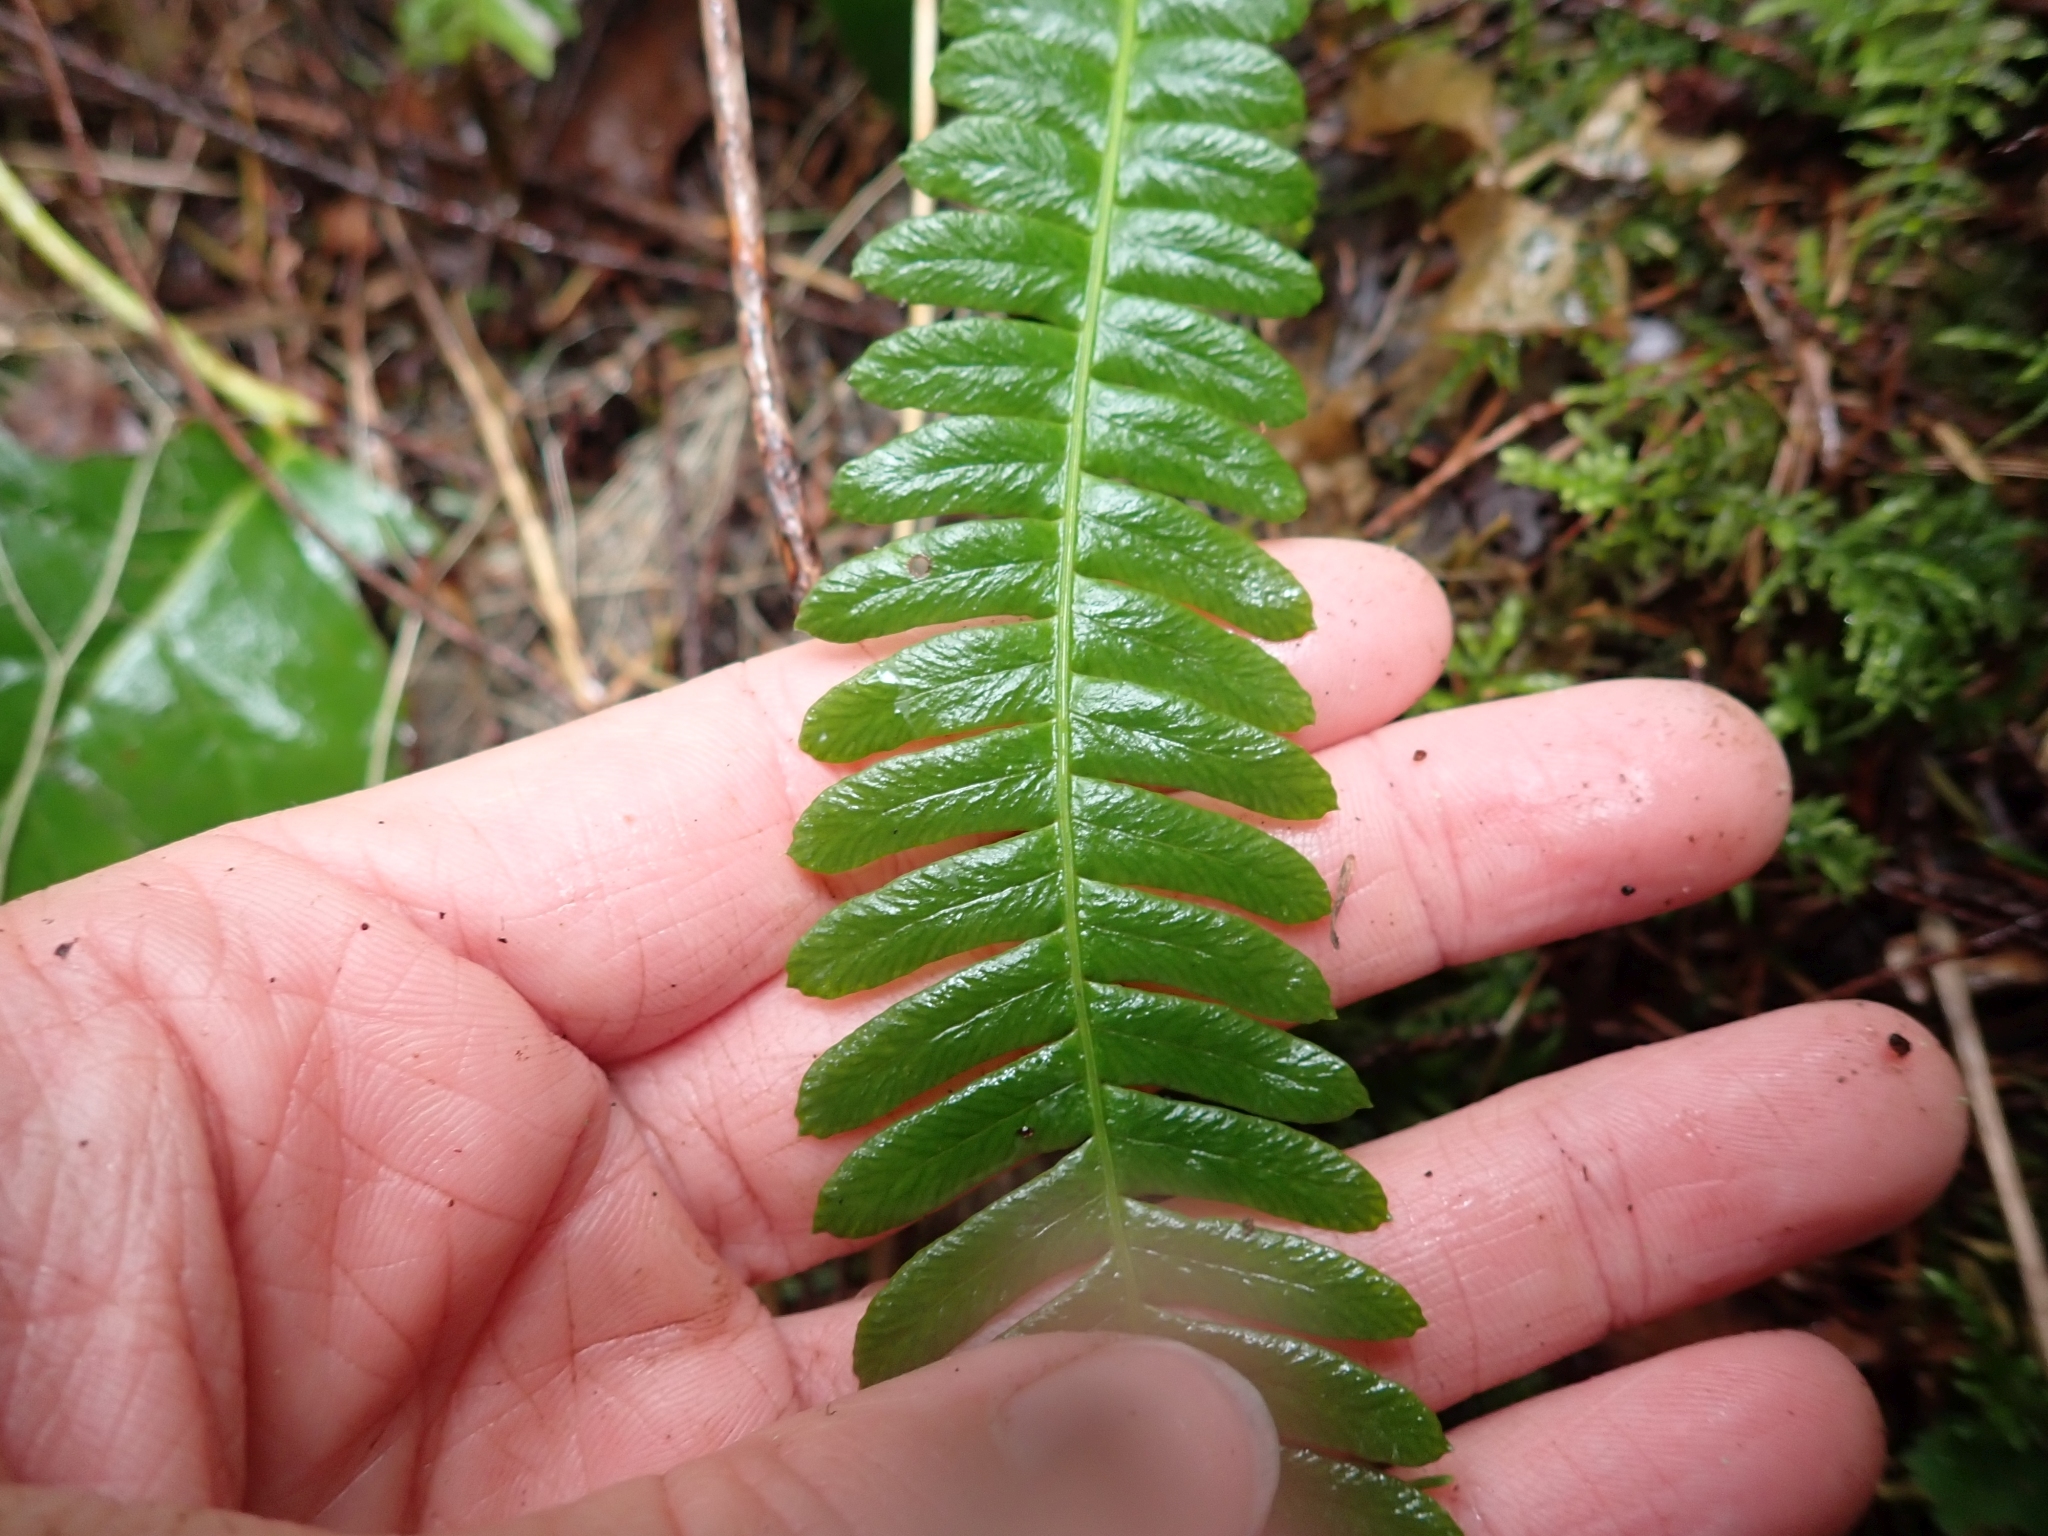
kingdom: Plantae
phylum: Tracheophyta
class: Polypodiopsida
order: Polypodiales
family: Blechnaceae
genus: Struthiopteris
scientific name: Struthiopteris spicant
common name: Deer fern
